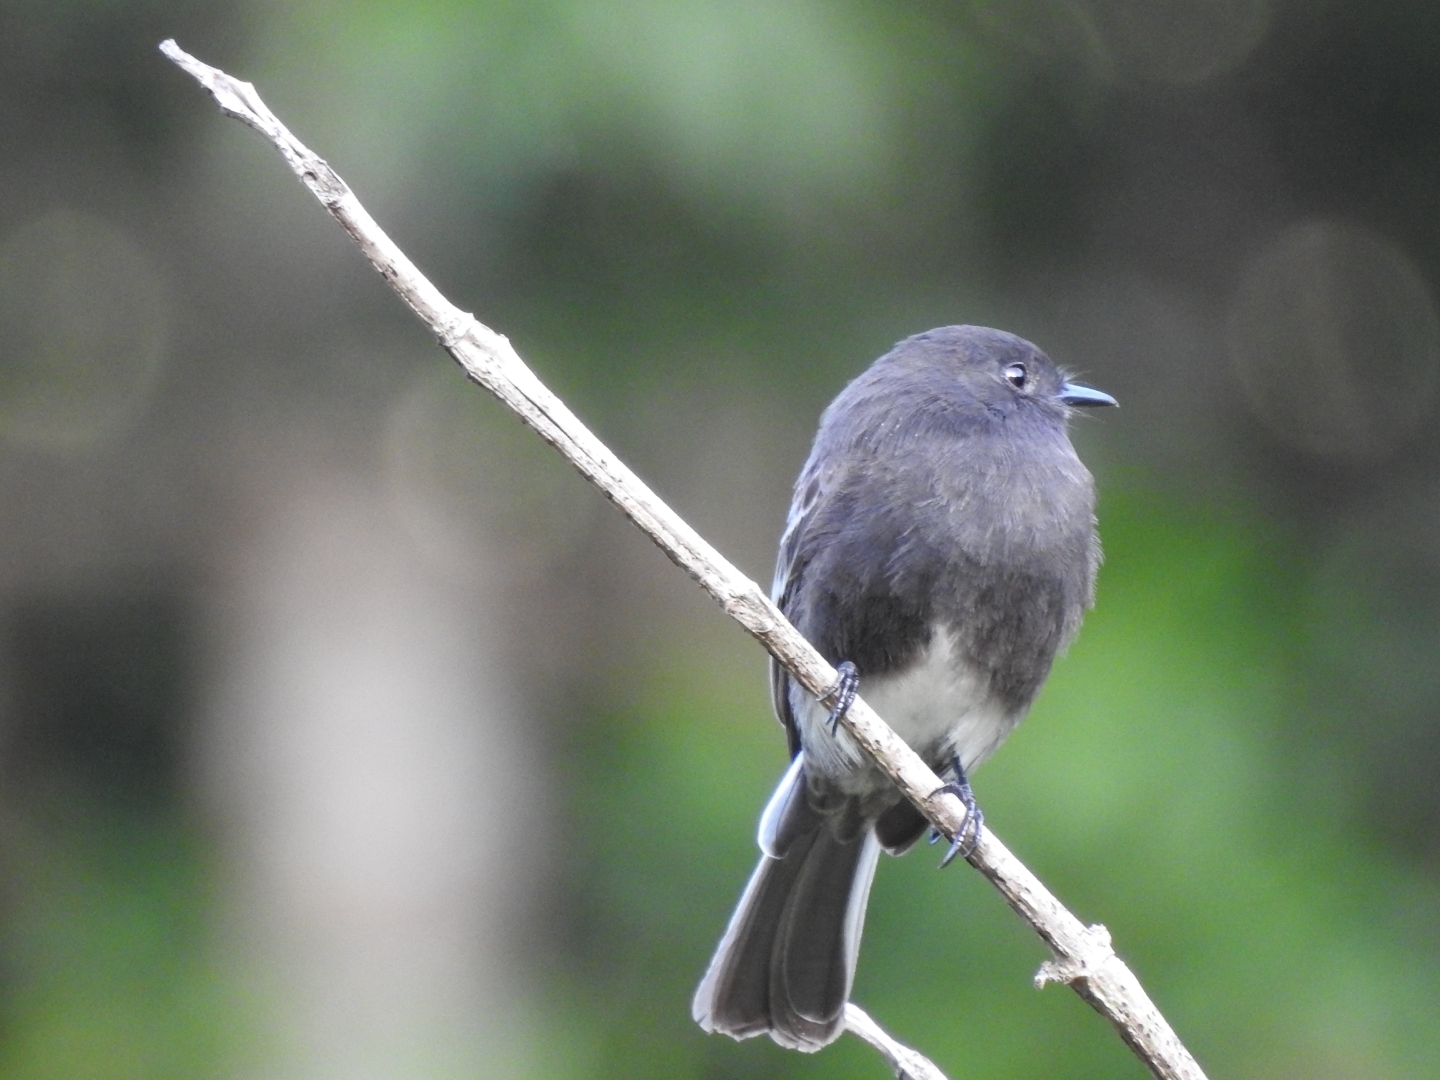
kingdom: Animalia
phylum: Chordata
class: Aves
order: Passeriformes
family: Tyrannidae
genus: Sayornis
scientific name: Sayornis nigricans
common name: Black phoebe
